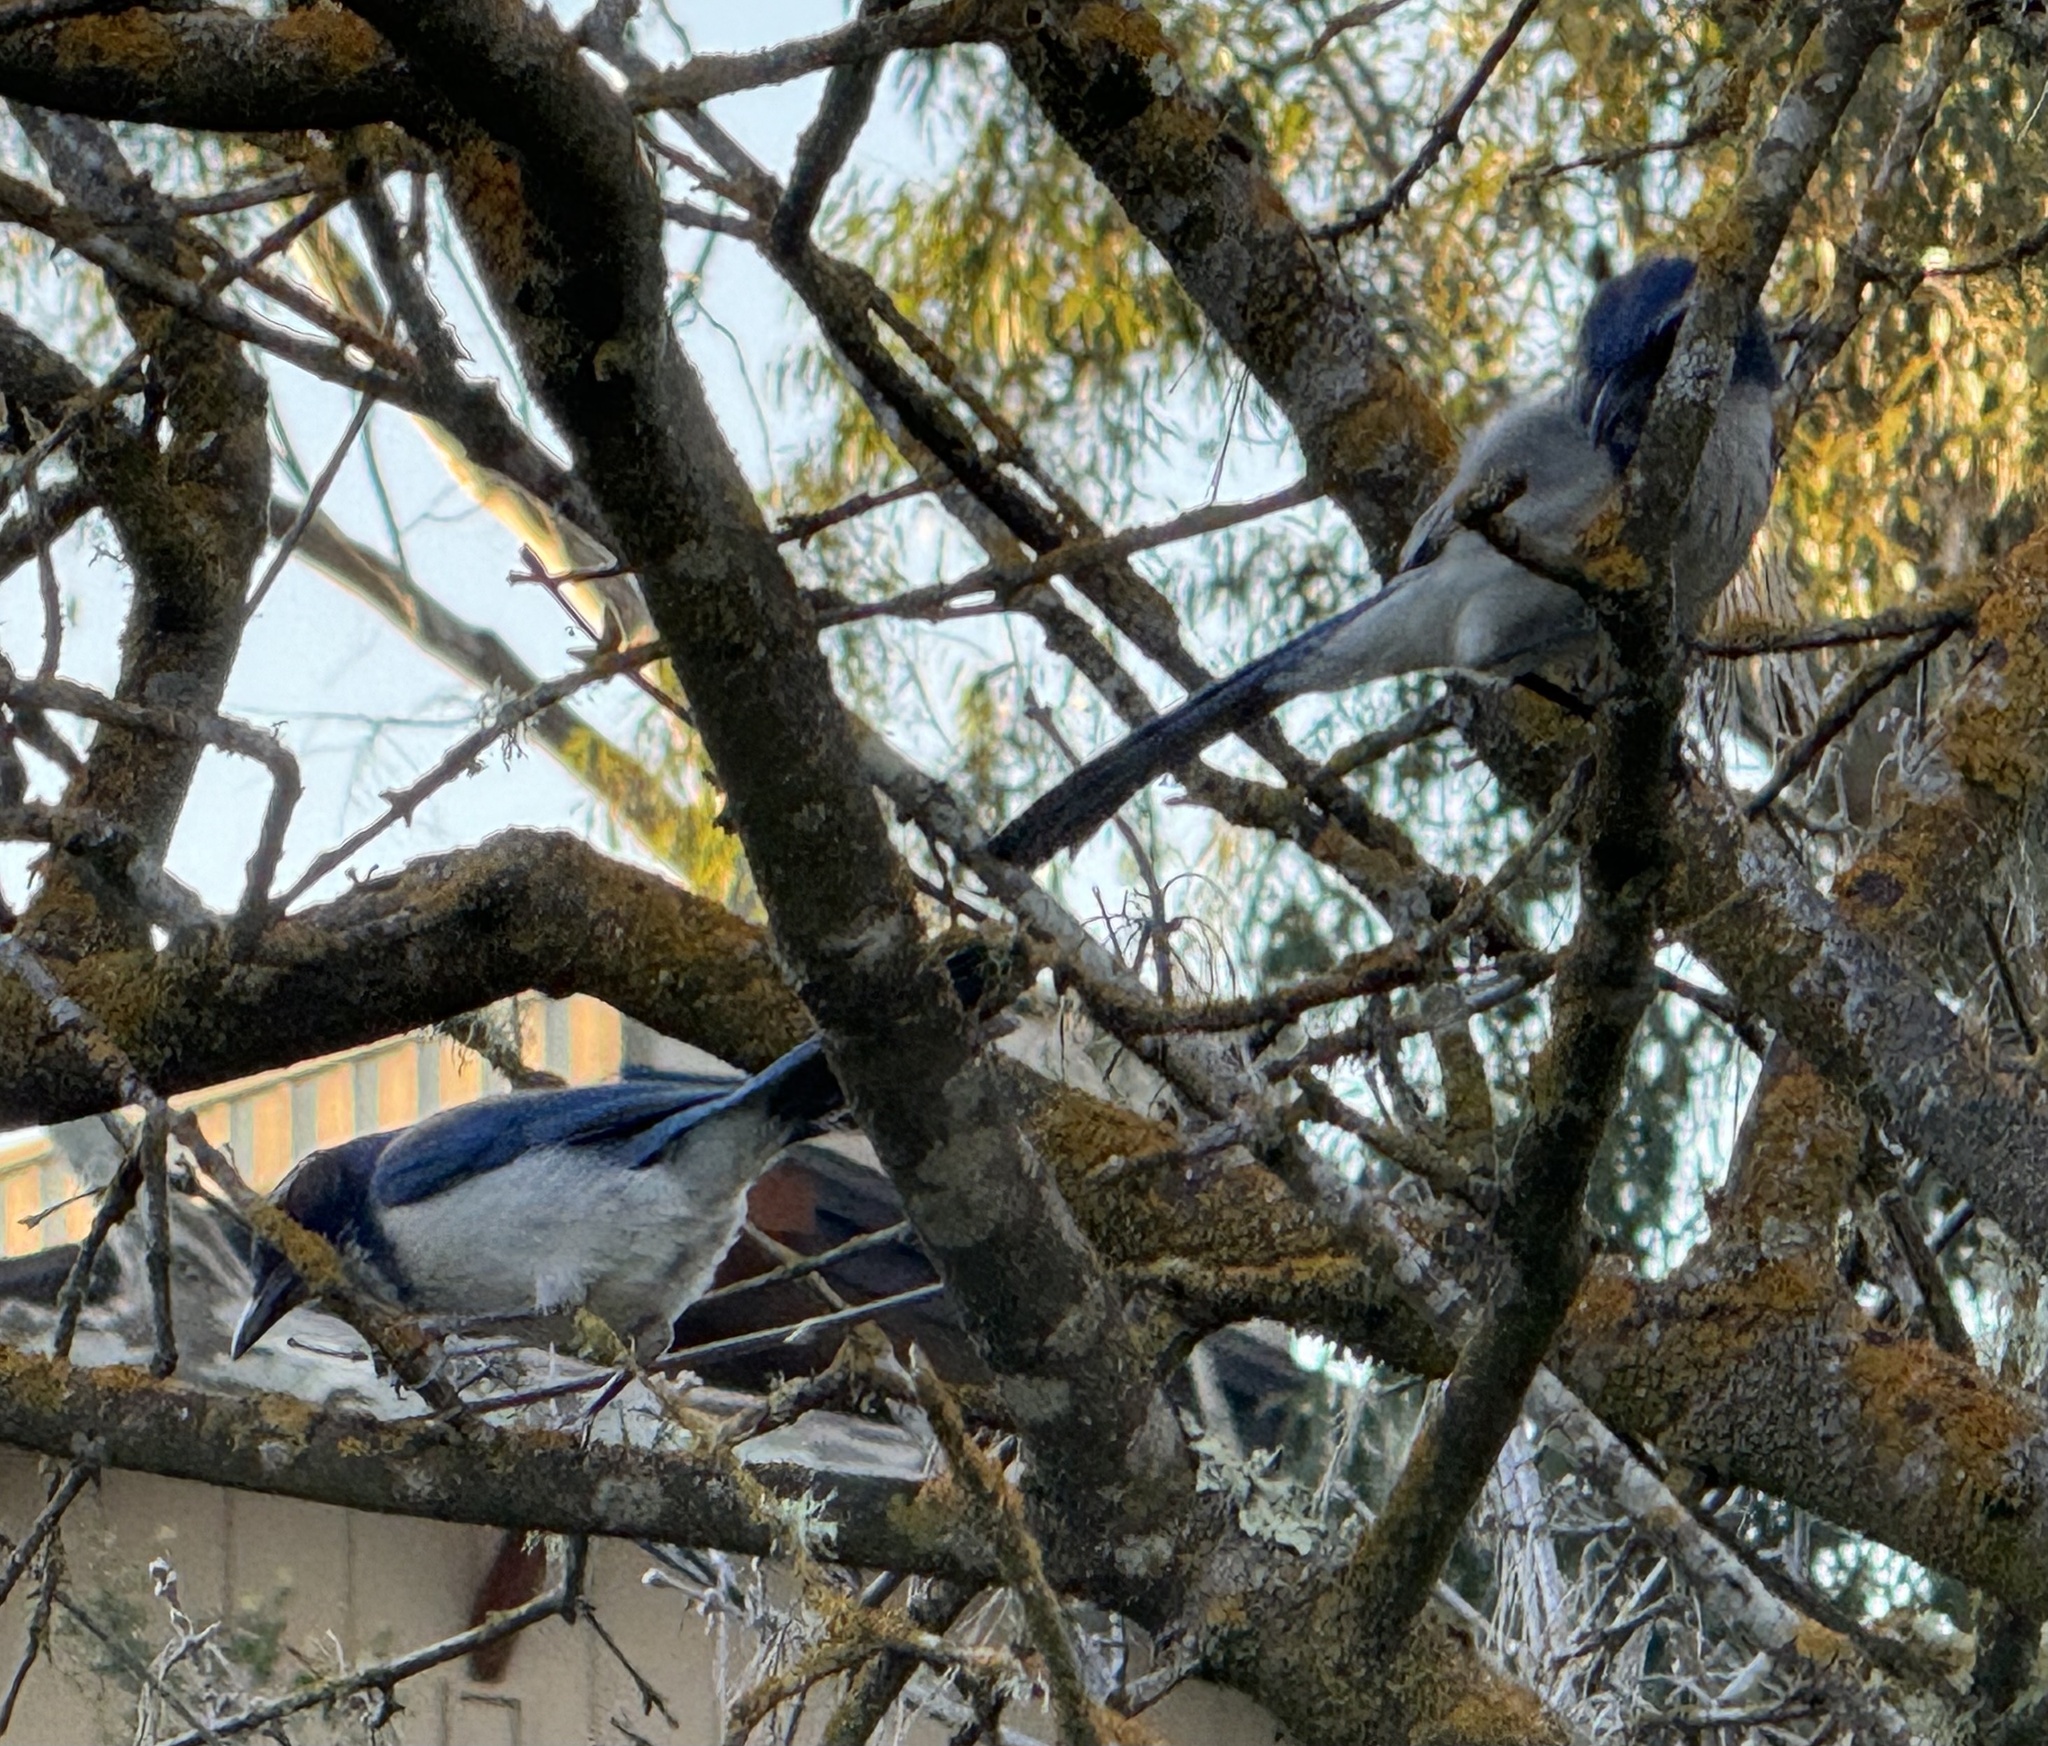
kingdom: Animalia
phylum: Chordata
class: Aves
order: Passeriformes
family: Corvidae
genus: Aphelocoma
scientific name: Aphelocoma californica
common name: California scrub-jay
